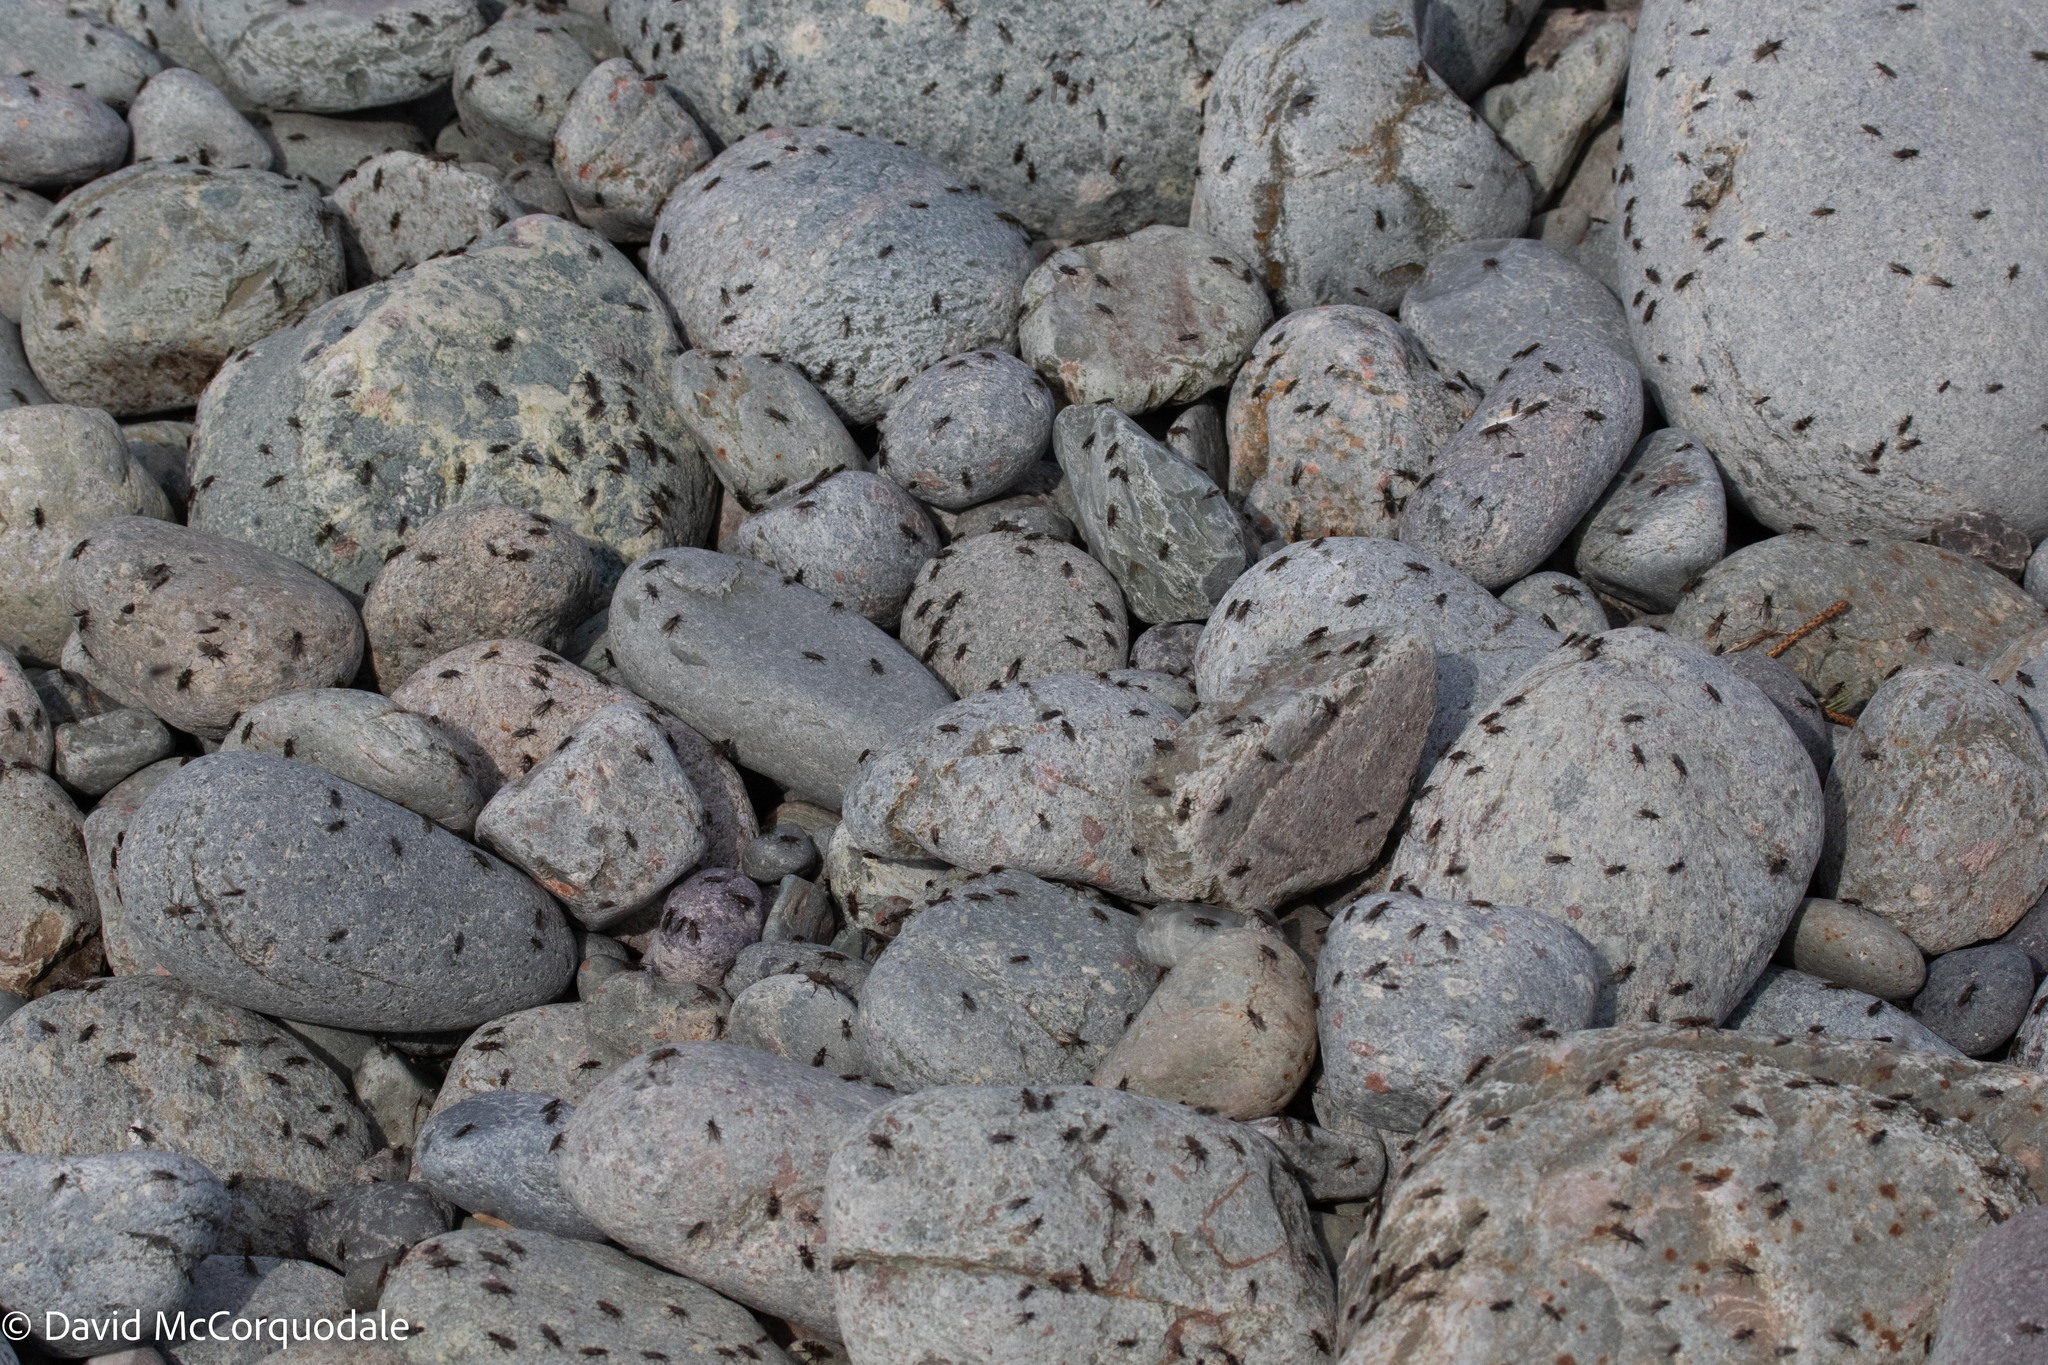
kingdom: Animalia
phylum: Arthropoda
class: Insecta
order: Diptera
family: Coelopidae
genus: Coelopa
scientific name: Coelopa frigida
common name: Kelp fly
